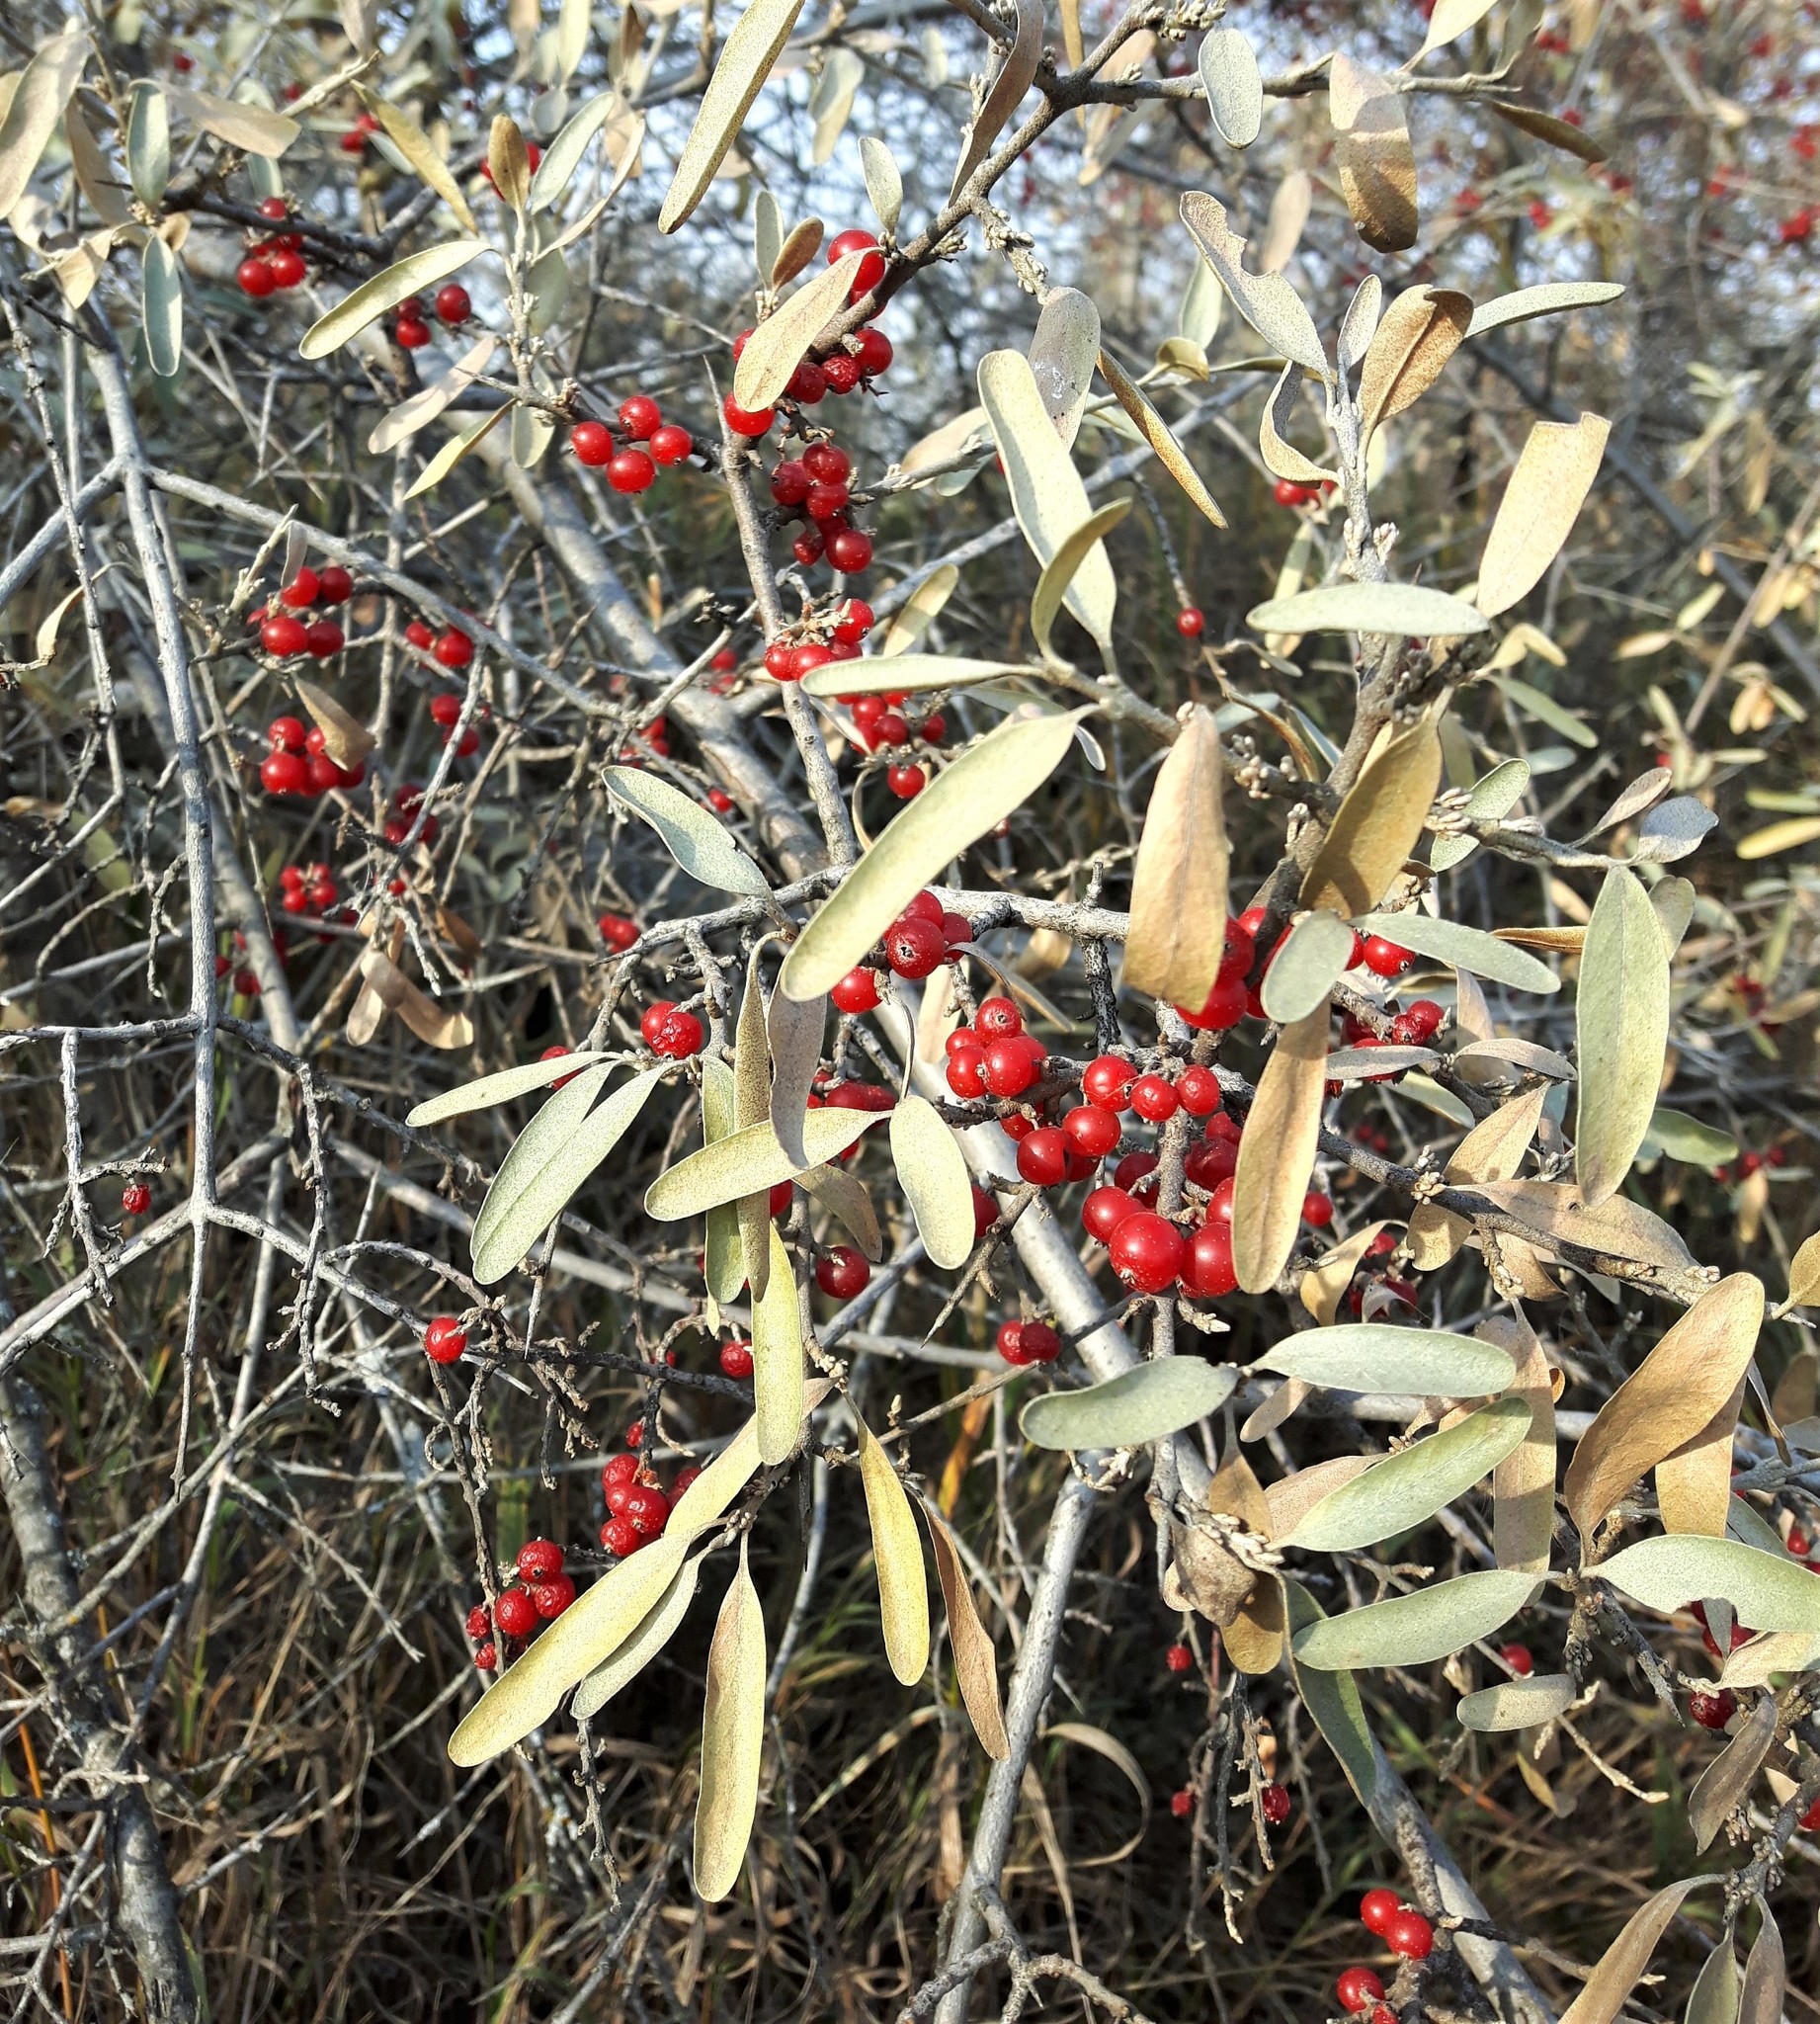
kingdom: Plantae
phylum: Tracheophyta
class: Magnoliopsida
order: Rosales
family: Elaeagnaceae
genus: Shepherdia
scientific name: Shepherdia argentea
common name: Silver buffaloberry
